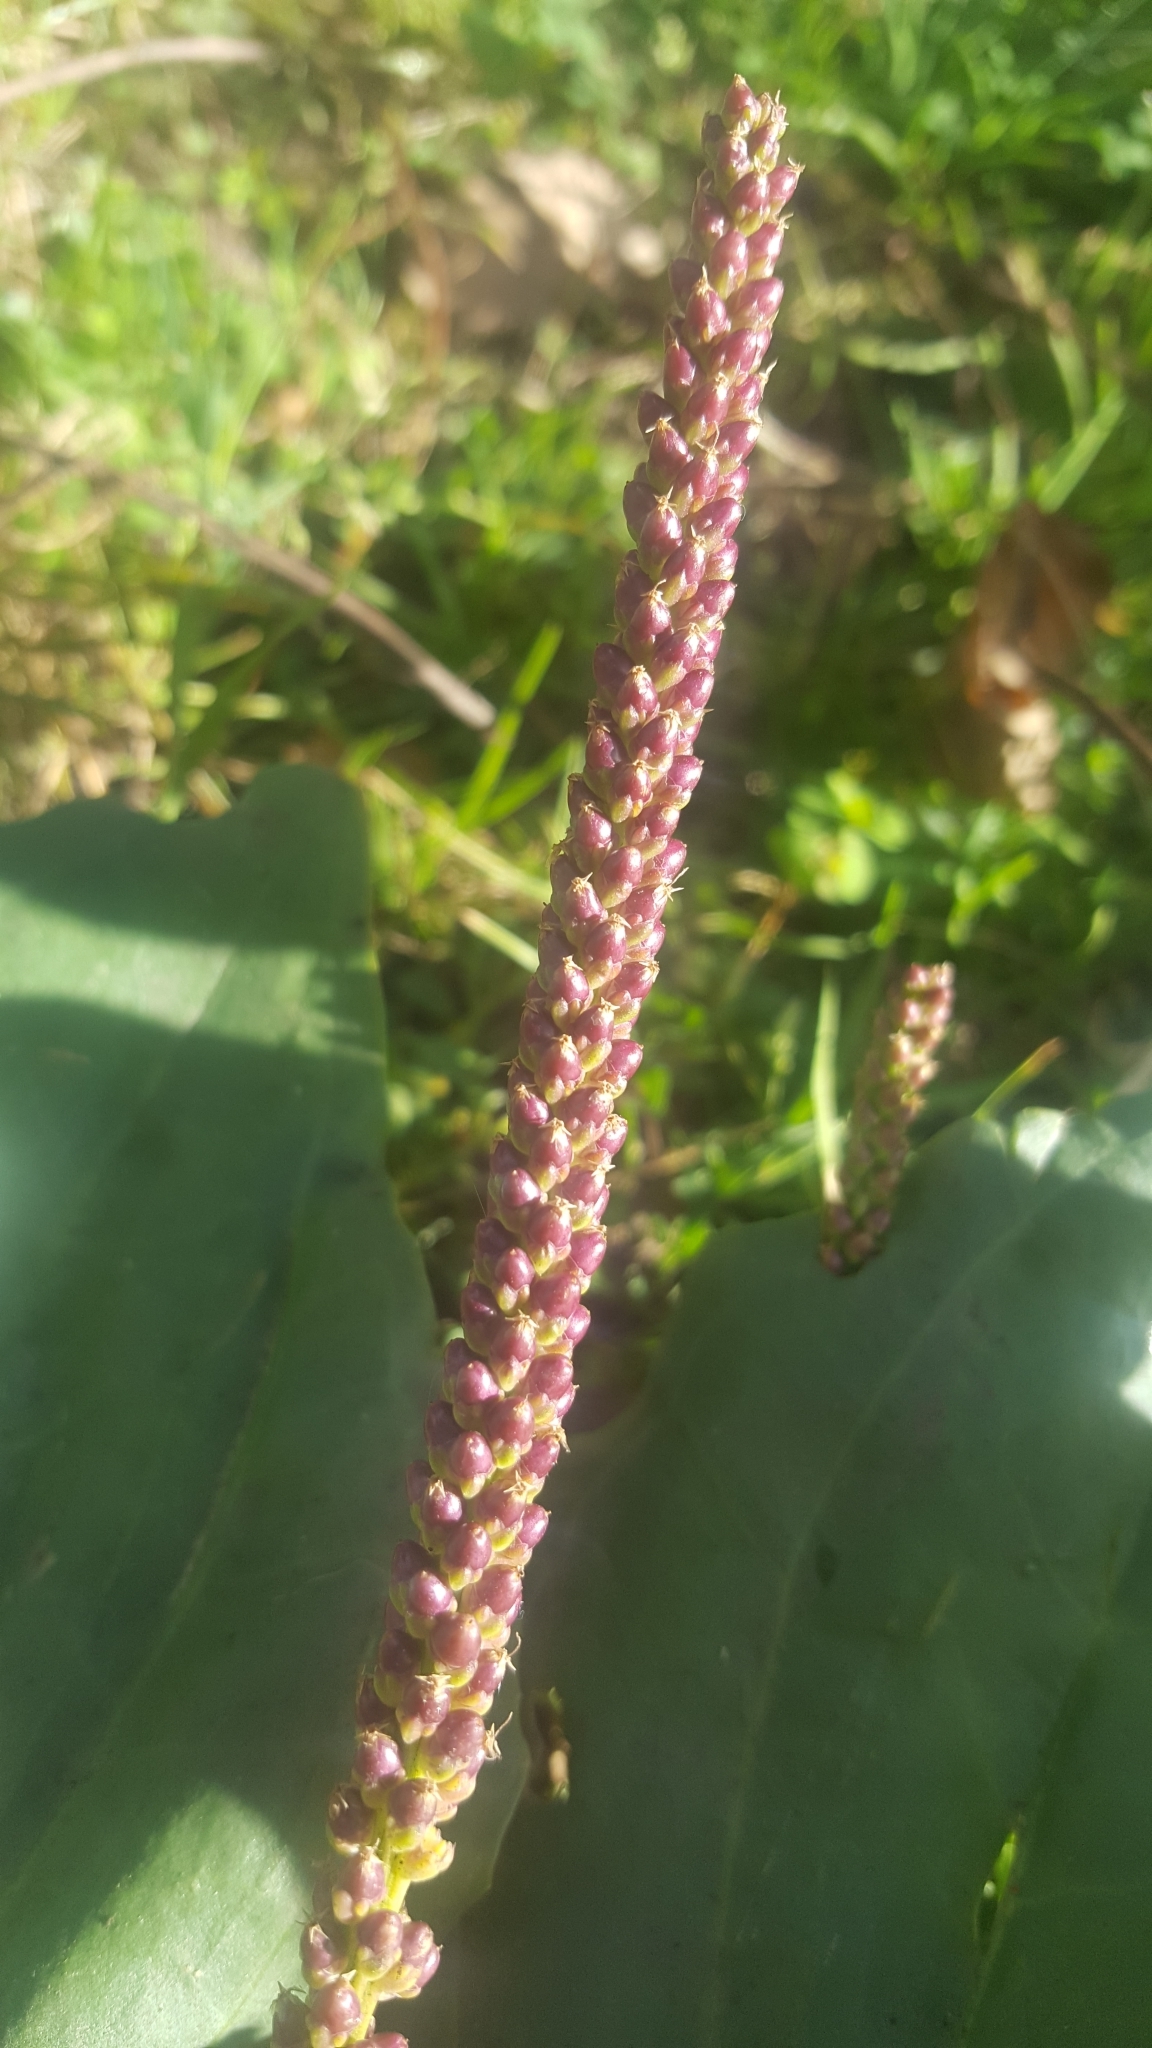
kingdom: Plantae
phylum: Tracheophyta
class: Magnoliopsida
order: Lamiales
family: Plantaginaceae
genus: Plantago
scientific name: Plantago major
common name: Common plantain
